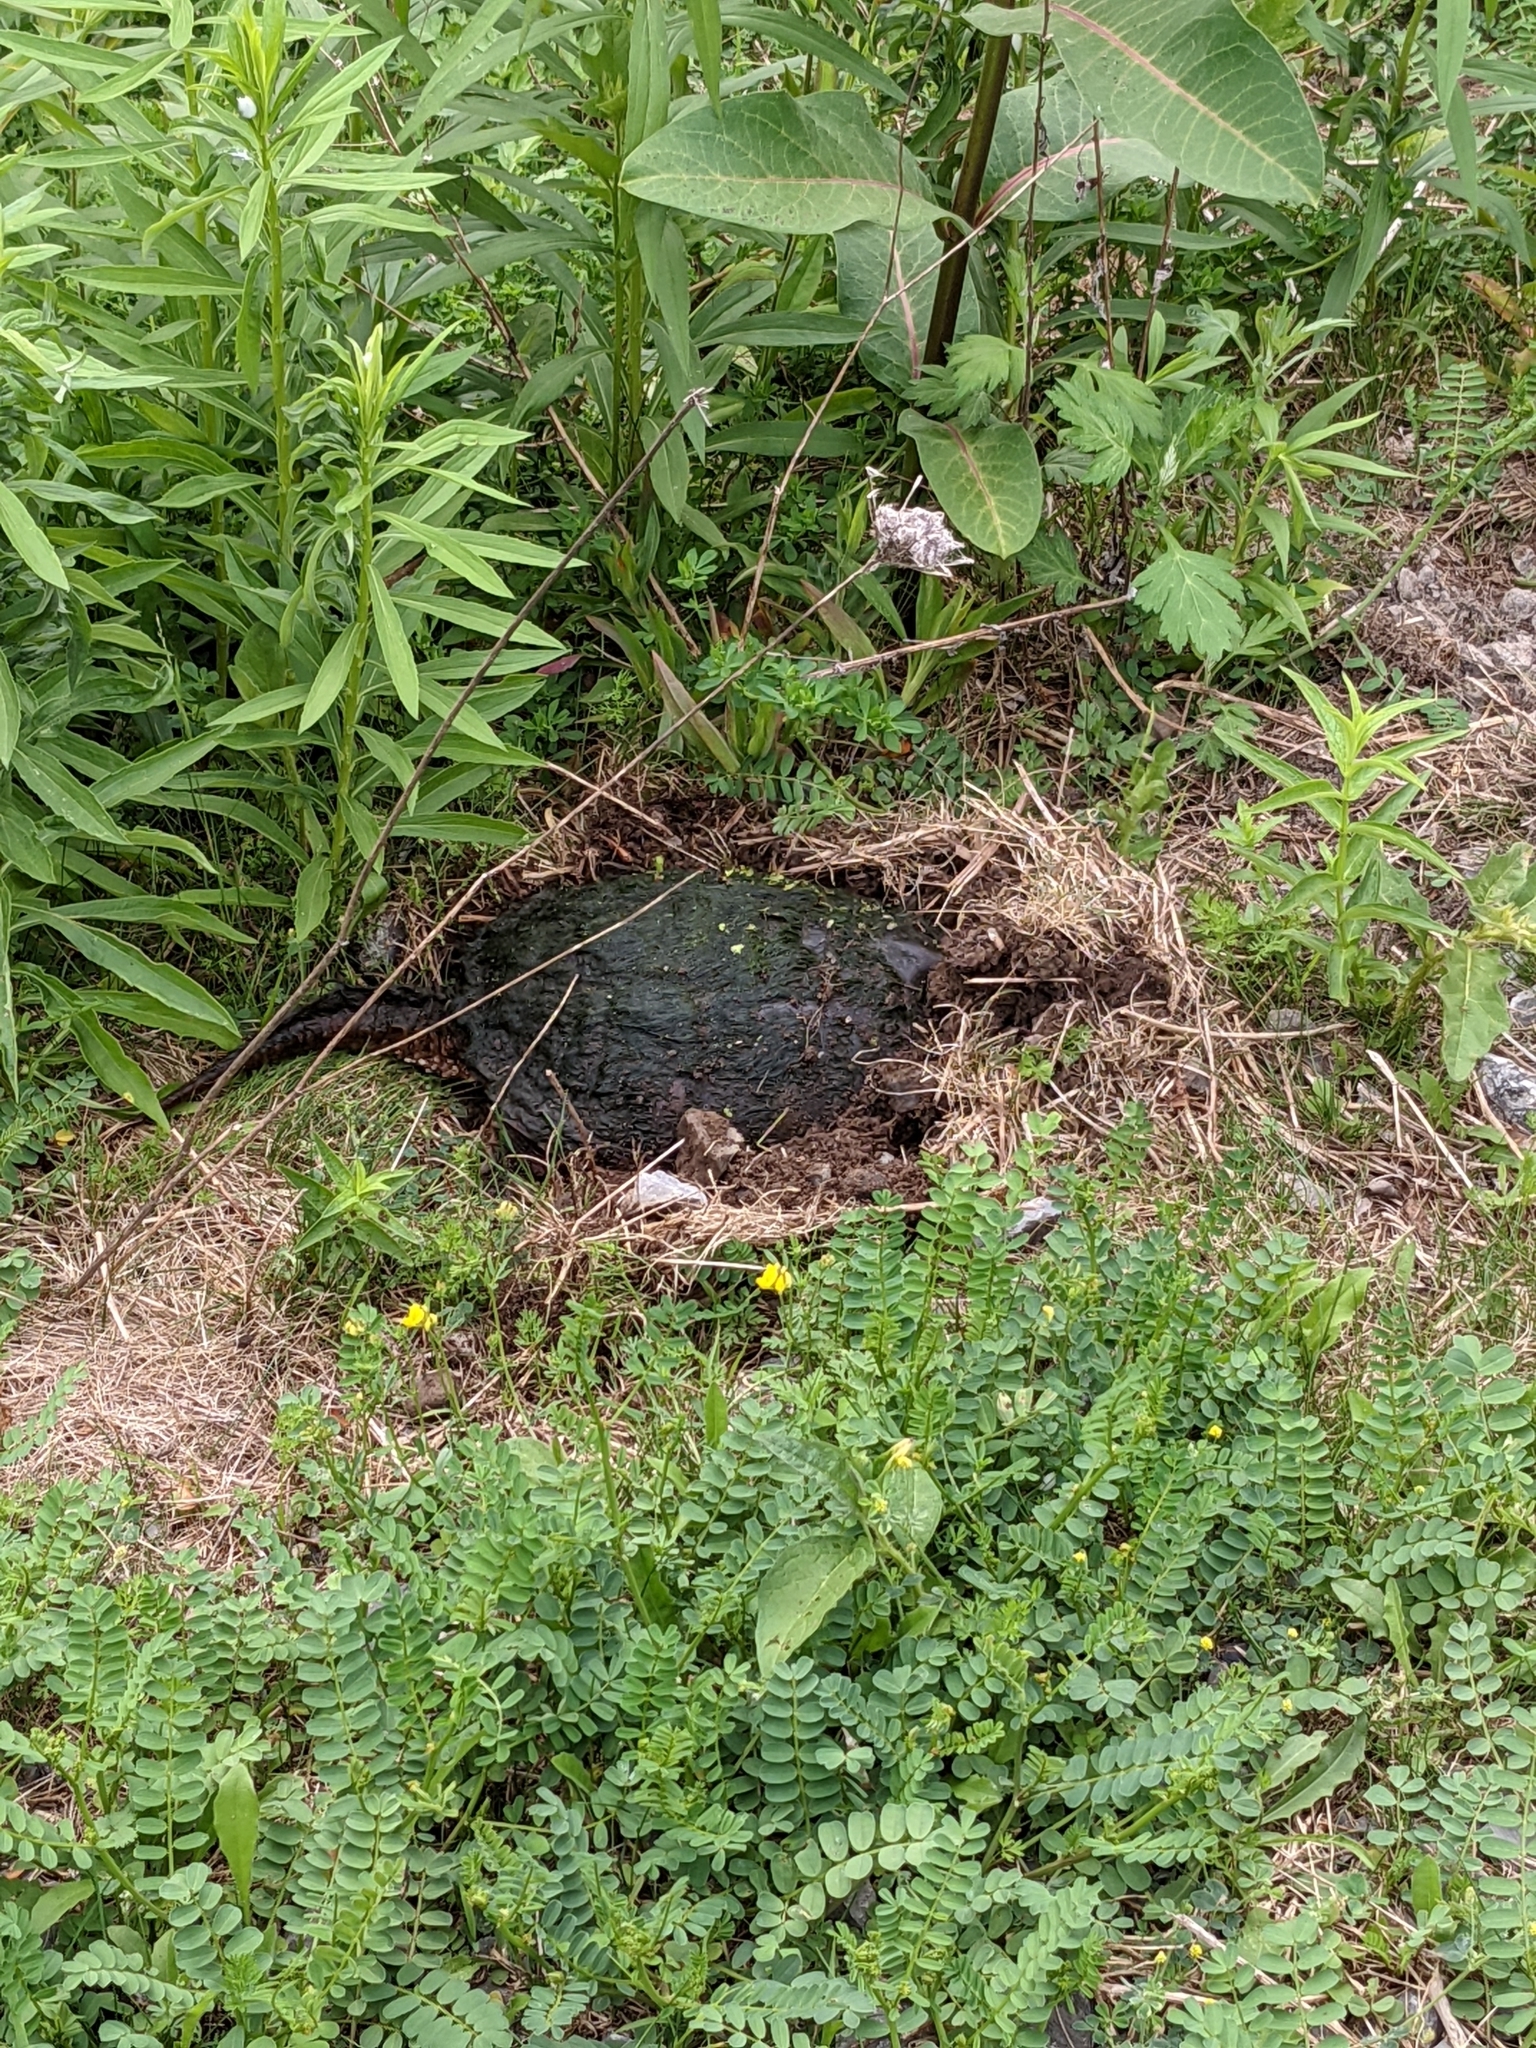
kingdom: Animalia
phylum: Chordata
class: Testudines
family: Chelydridae
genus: Chelydra
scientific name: Chelydra serpentina
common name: Common snapping turtle
